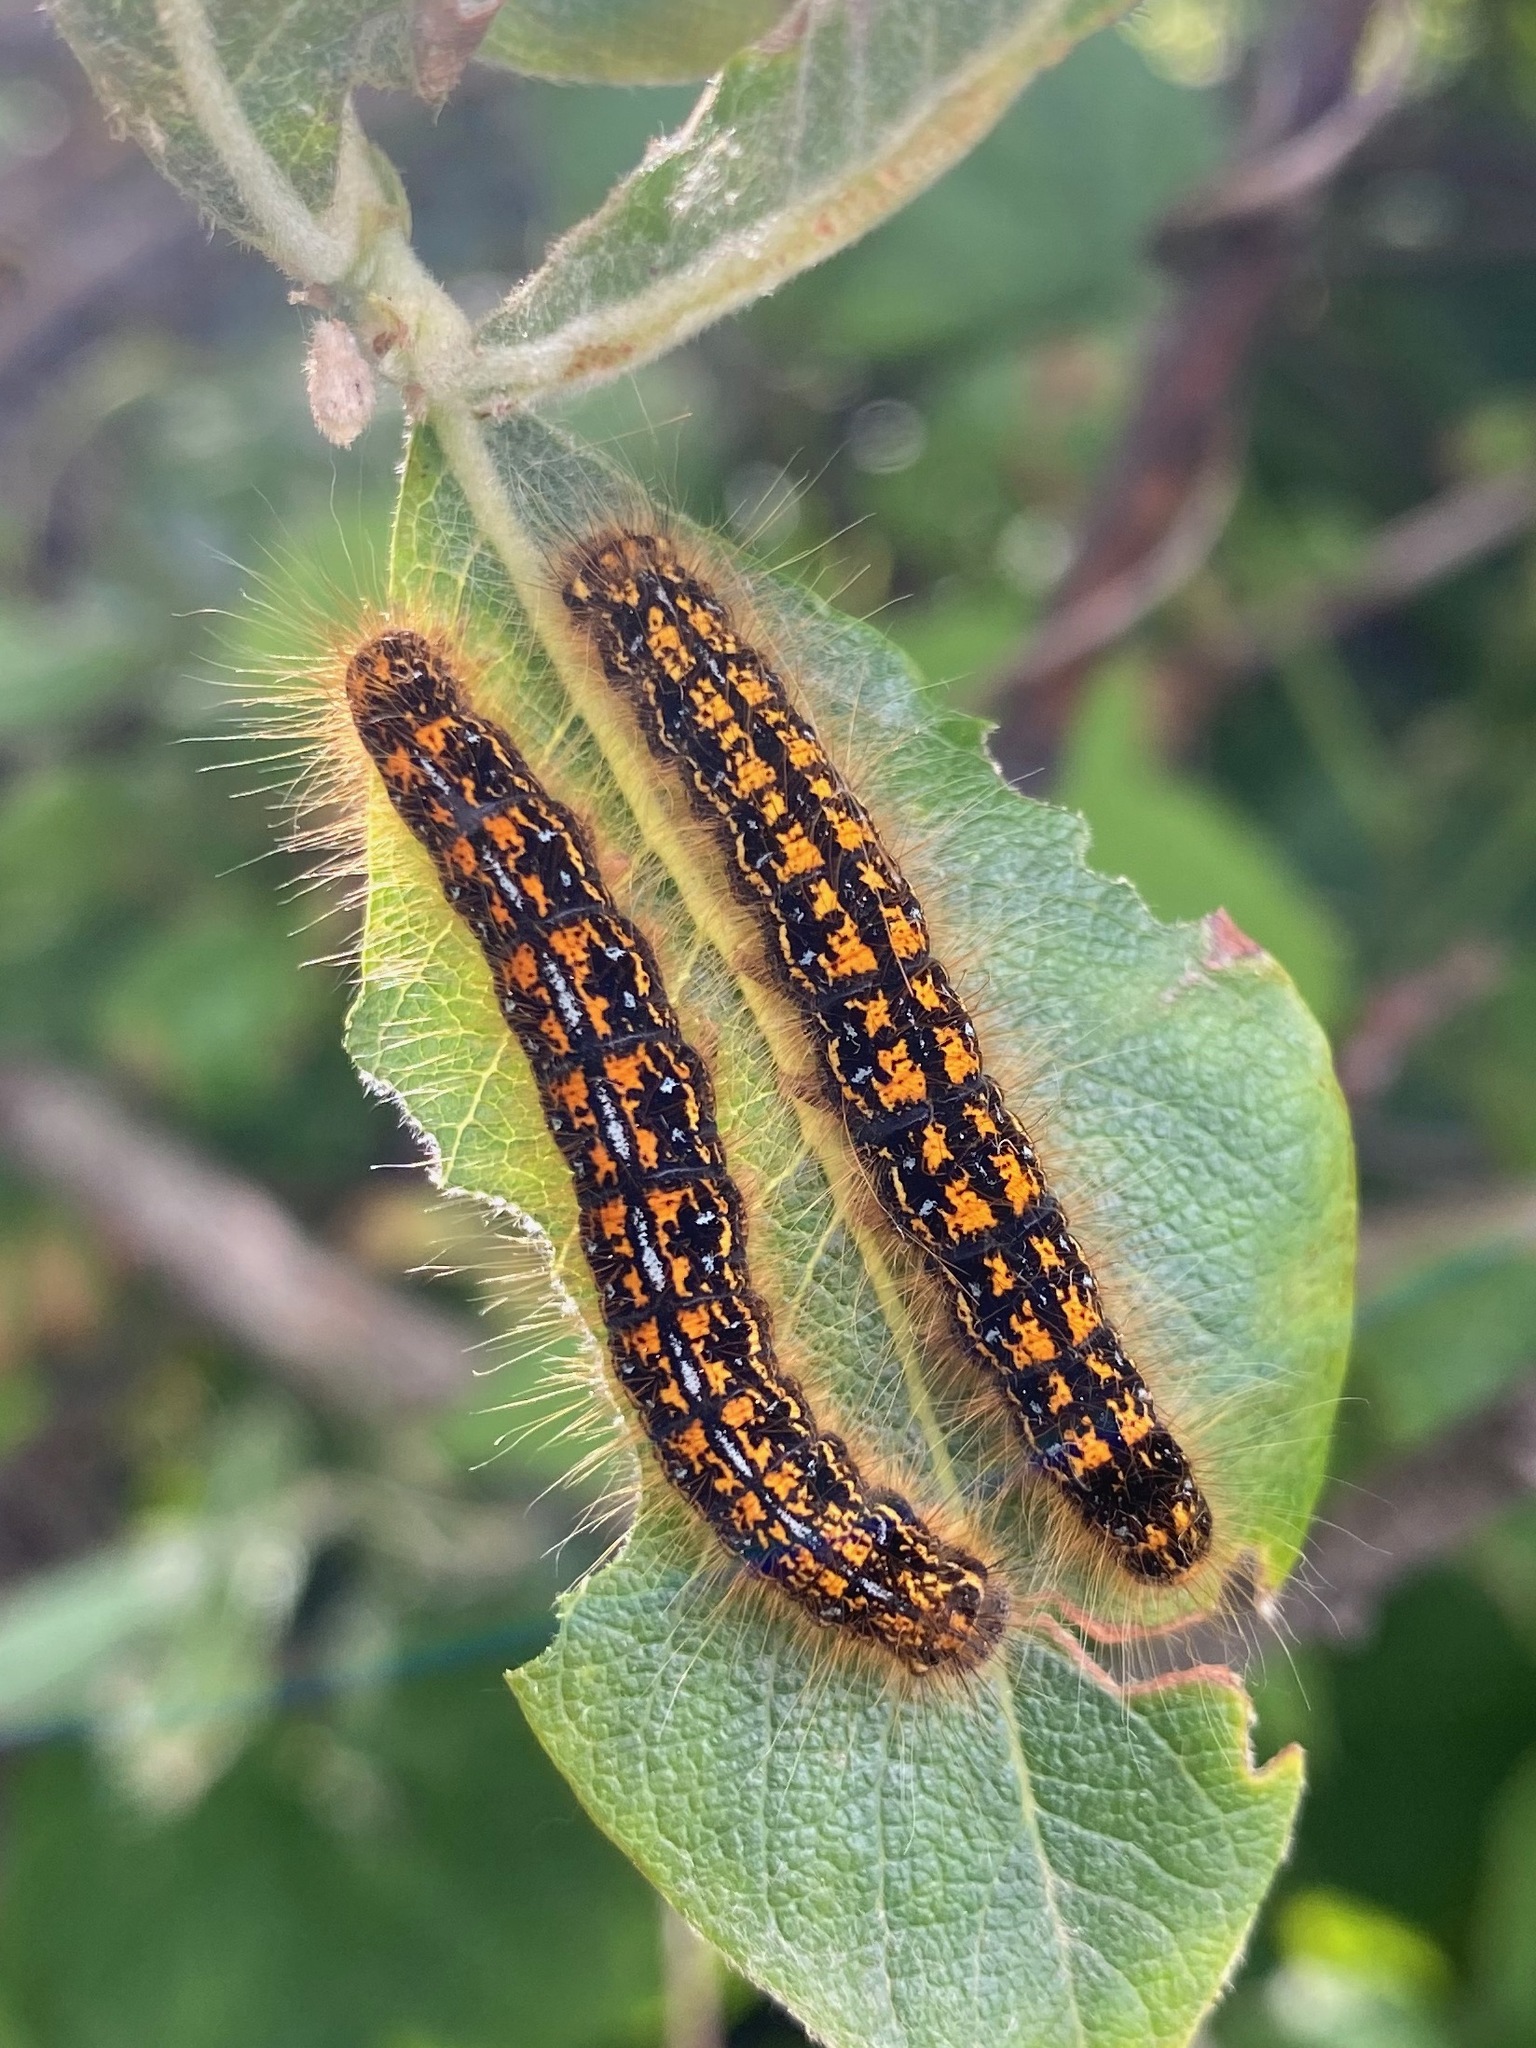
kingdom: Animalia
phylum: Arthropoda
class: Insecta
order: Lepidoptera
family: Lasiocampidae
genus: Malacosoma
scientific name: Malacosoma californica
